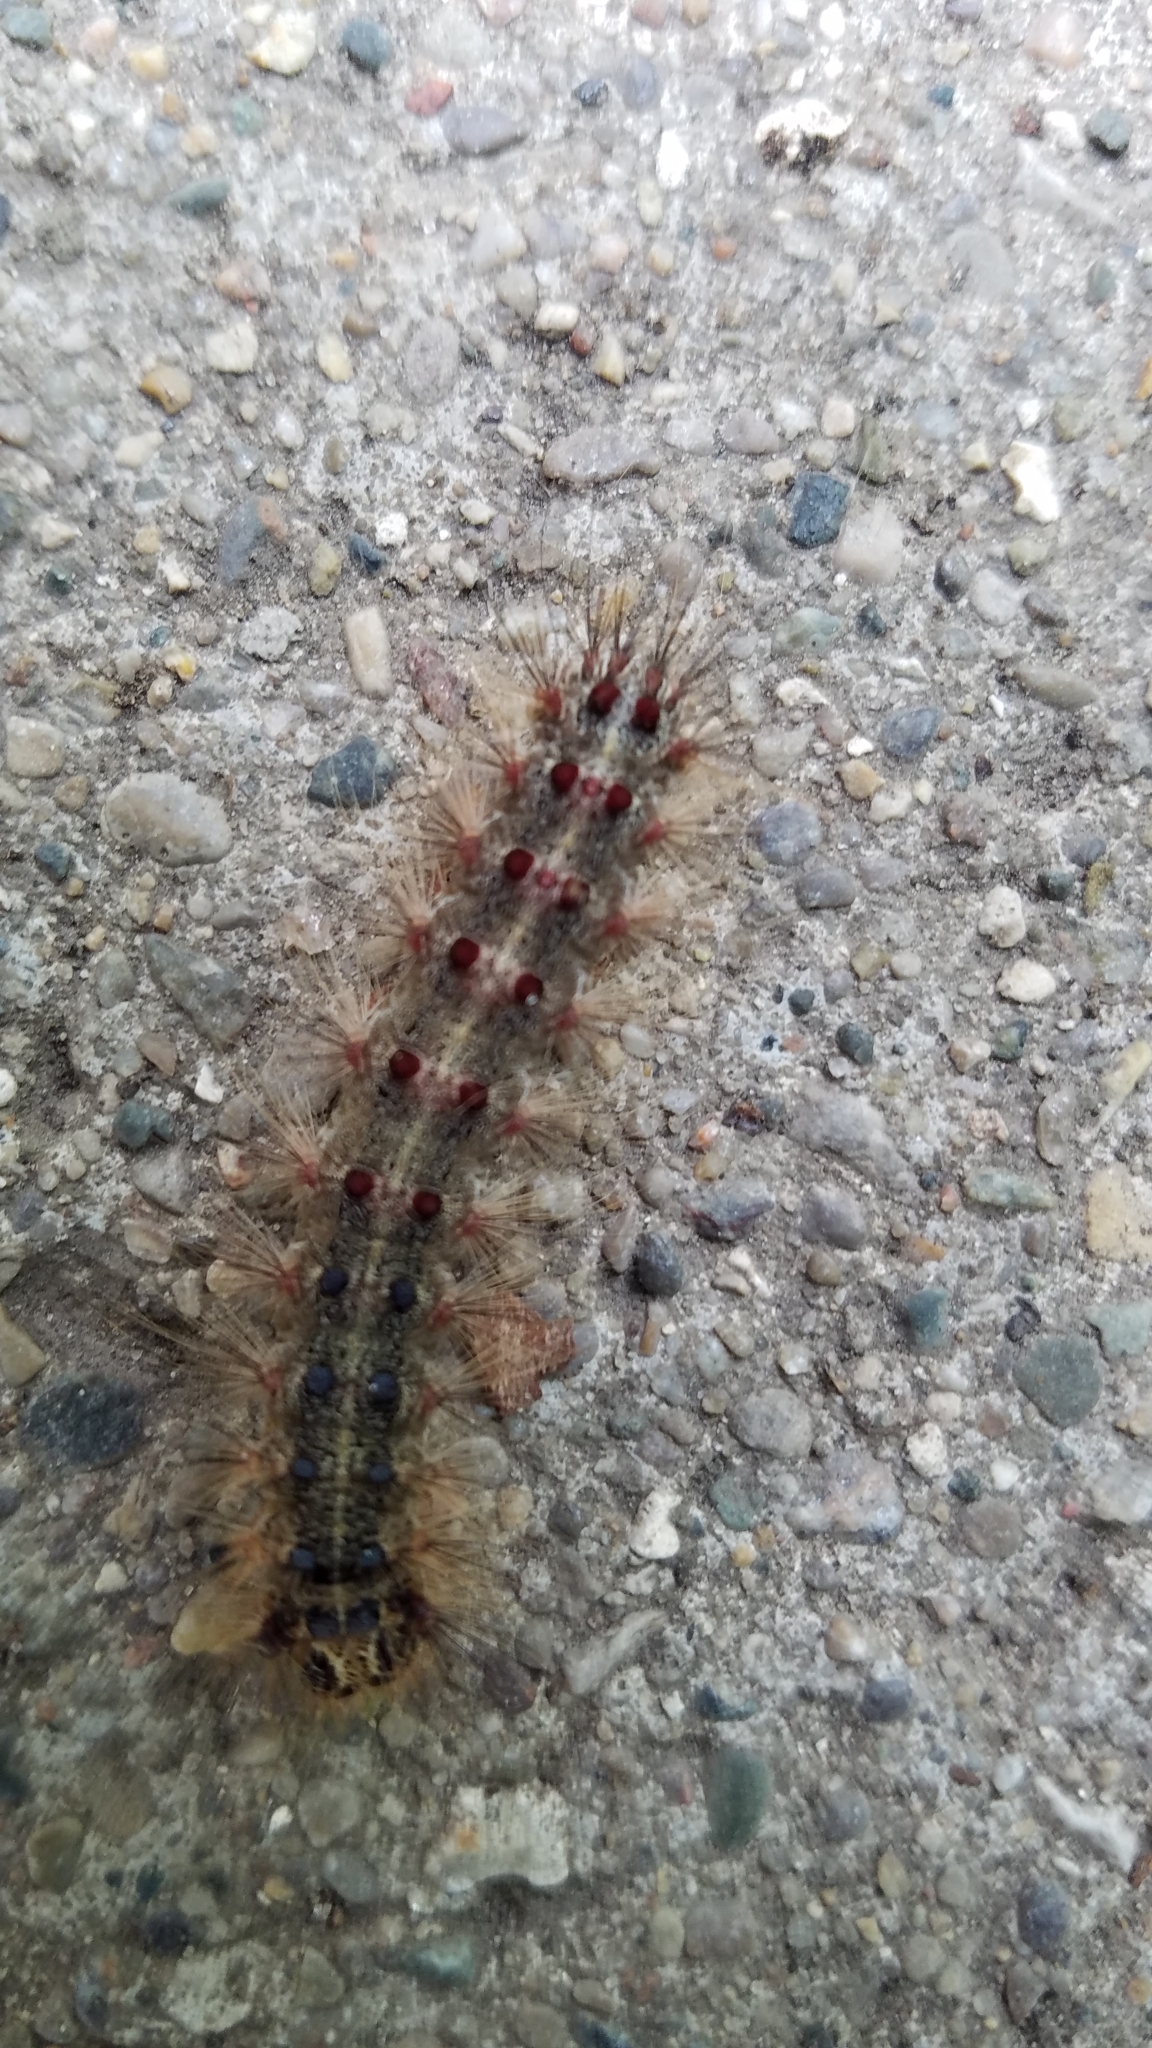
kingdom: Animalia
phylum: Arthropoda
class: Insecta
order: Lepidoptera
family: Erebidae
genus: Lymantria
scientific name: Lymantria dispar
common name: Gypsy moth
